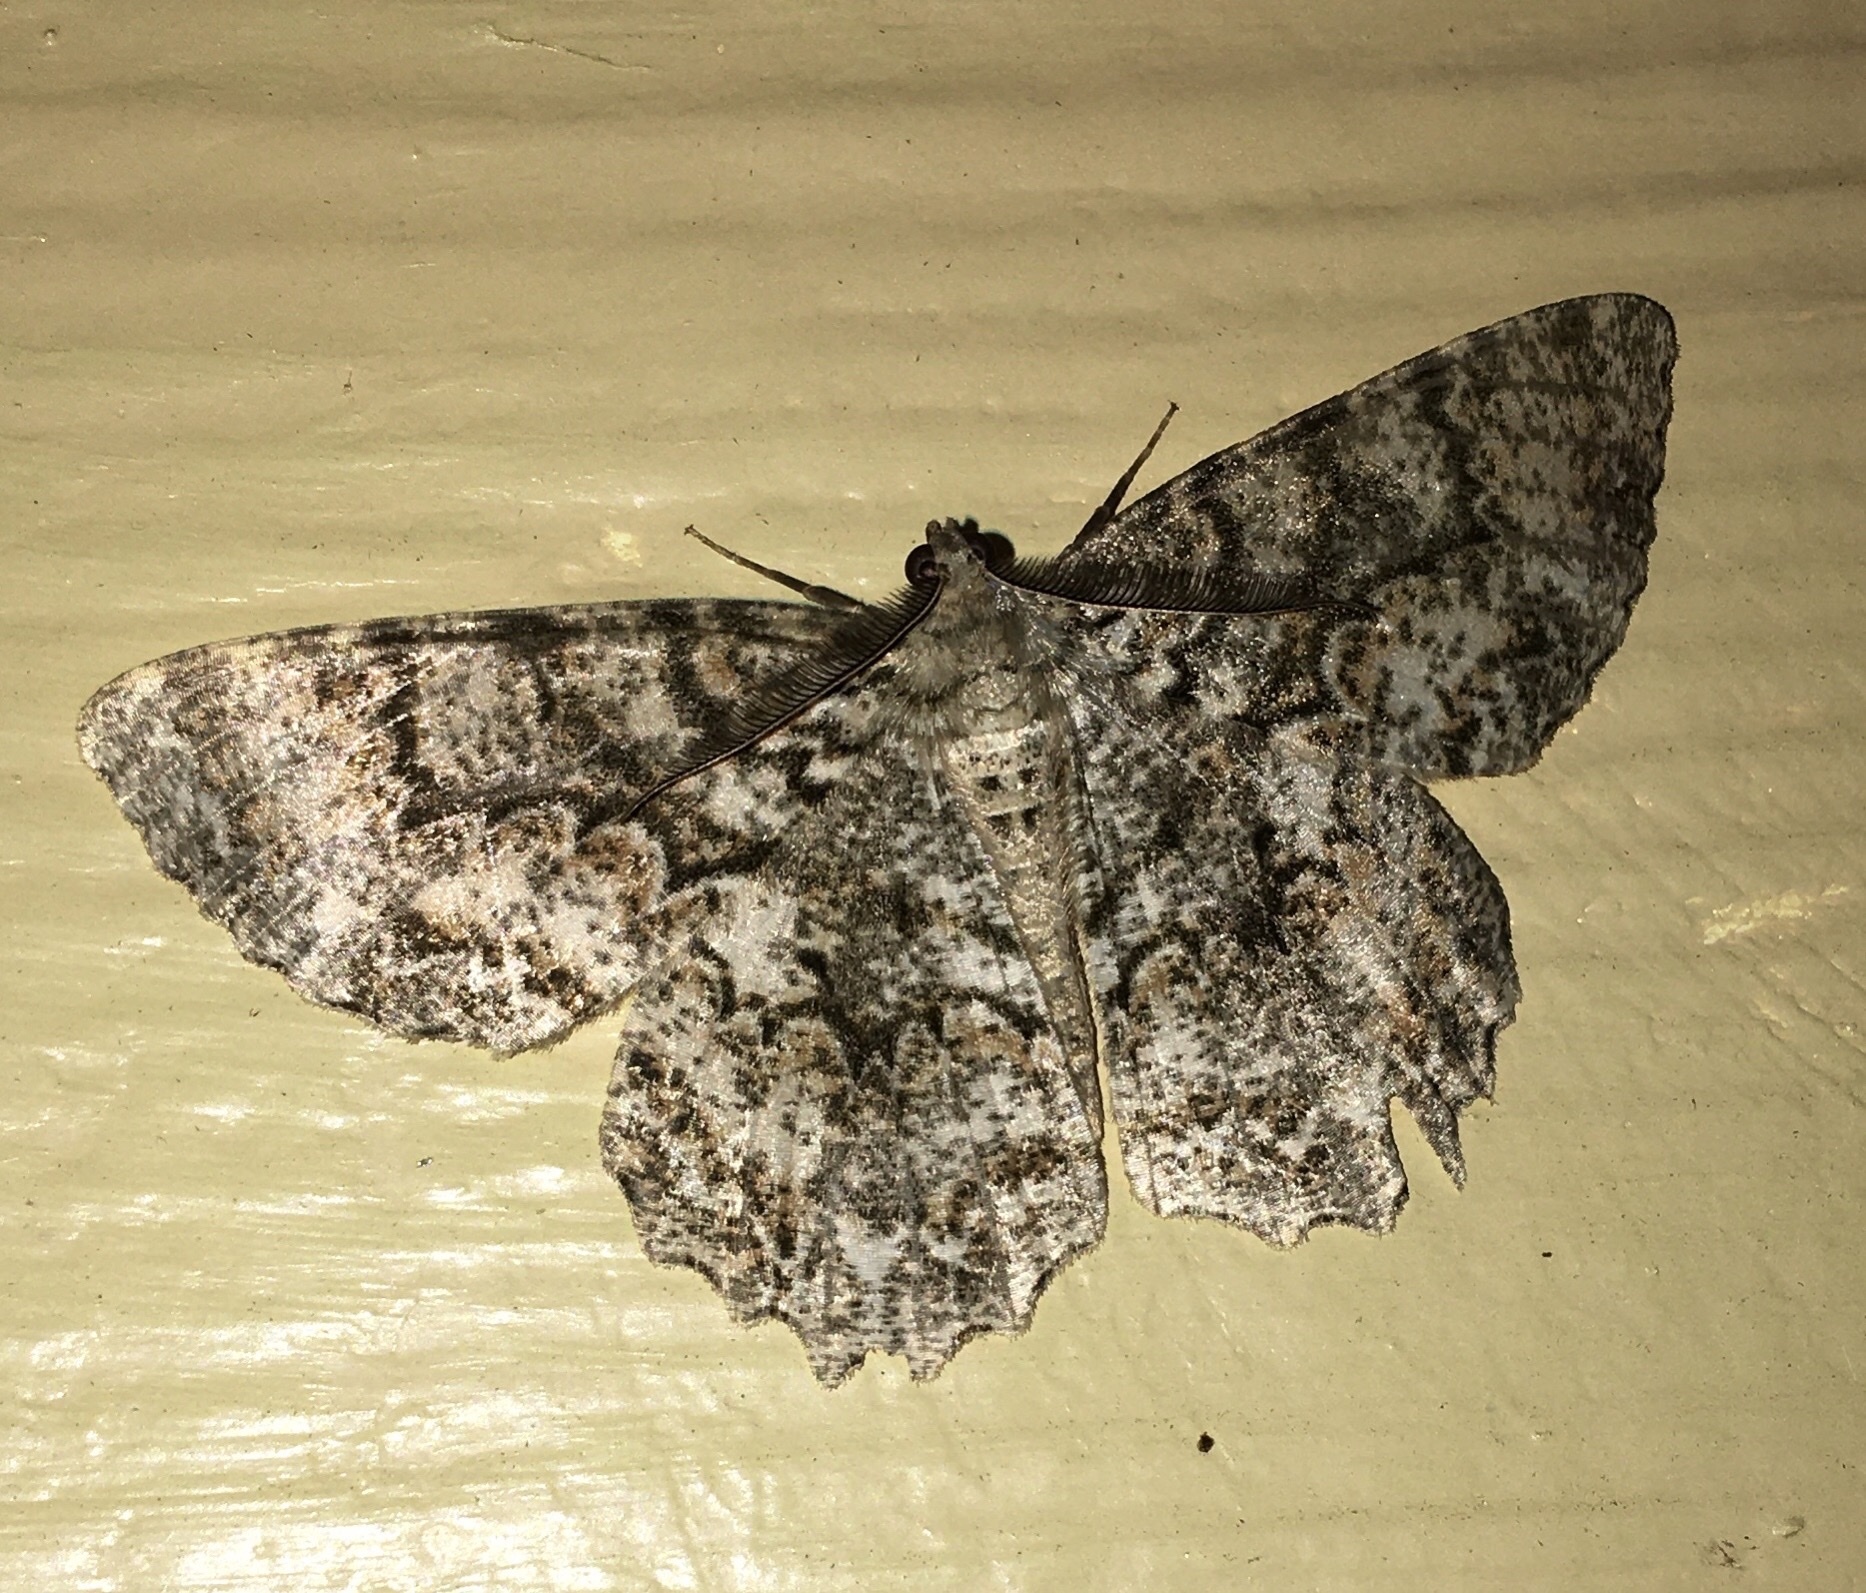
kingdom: Animalia
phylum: Arthropoda
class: Insecta
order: Lepidoptera
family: Geometridae
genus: Epimecis
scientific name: Epimecis hortaria
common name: Tulip-tree beauty
